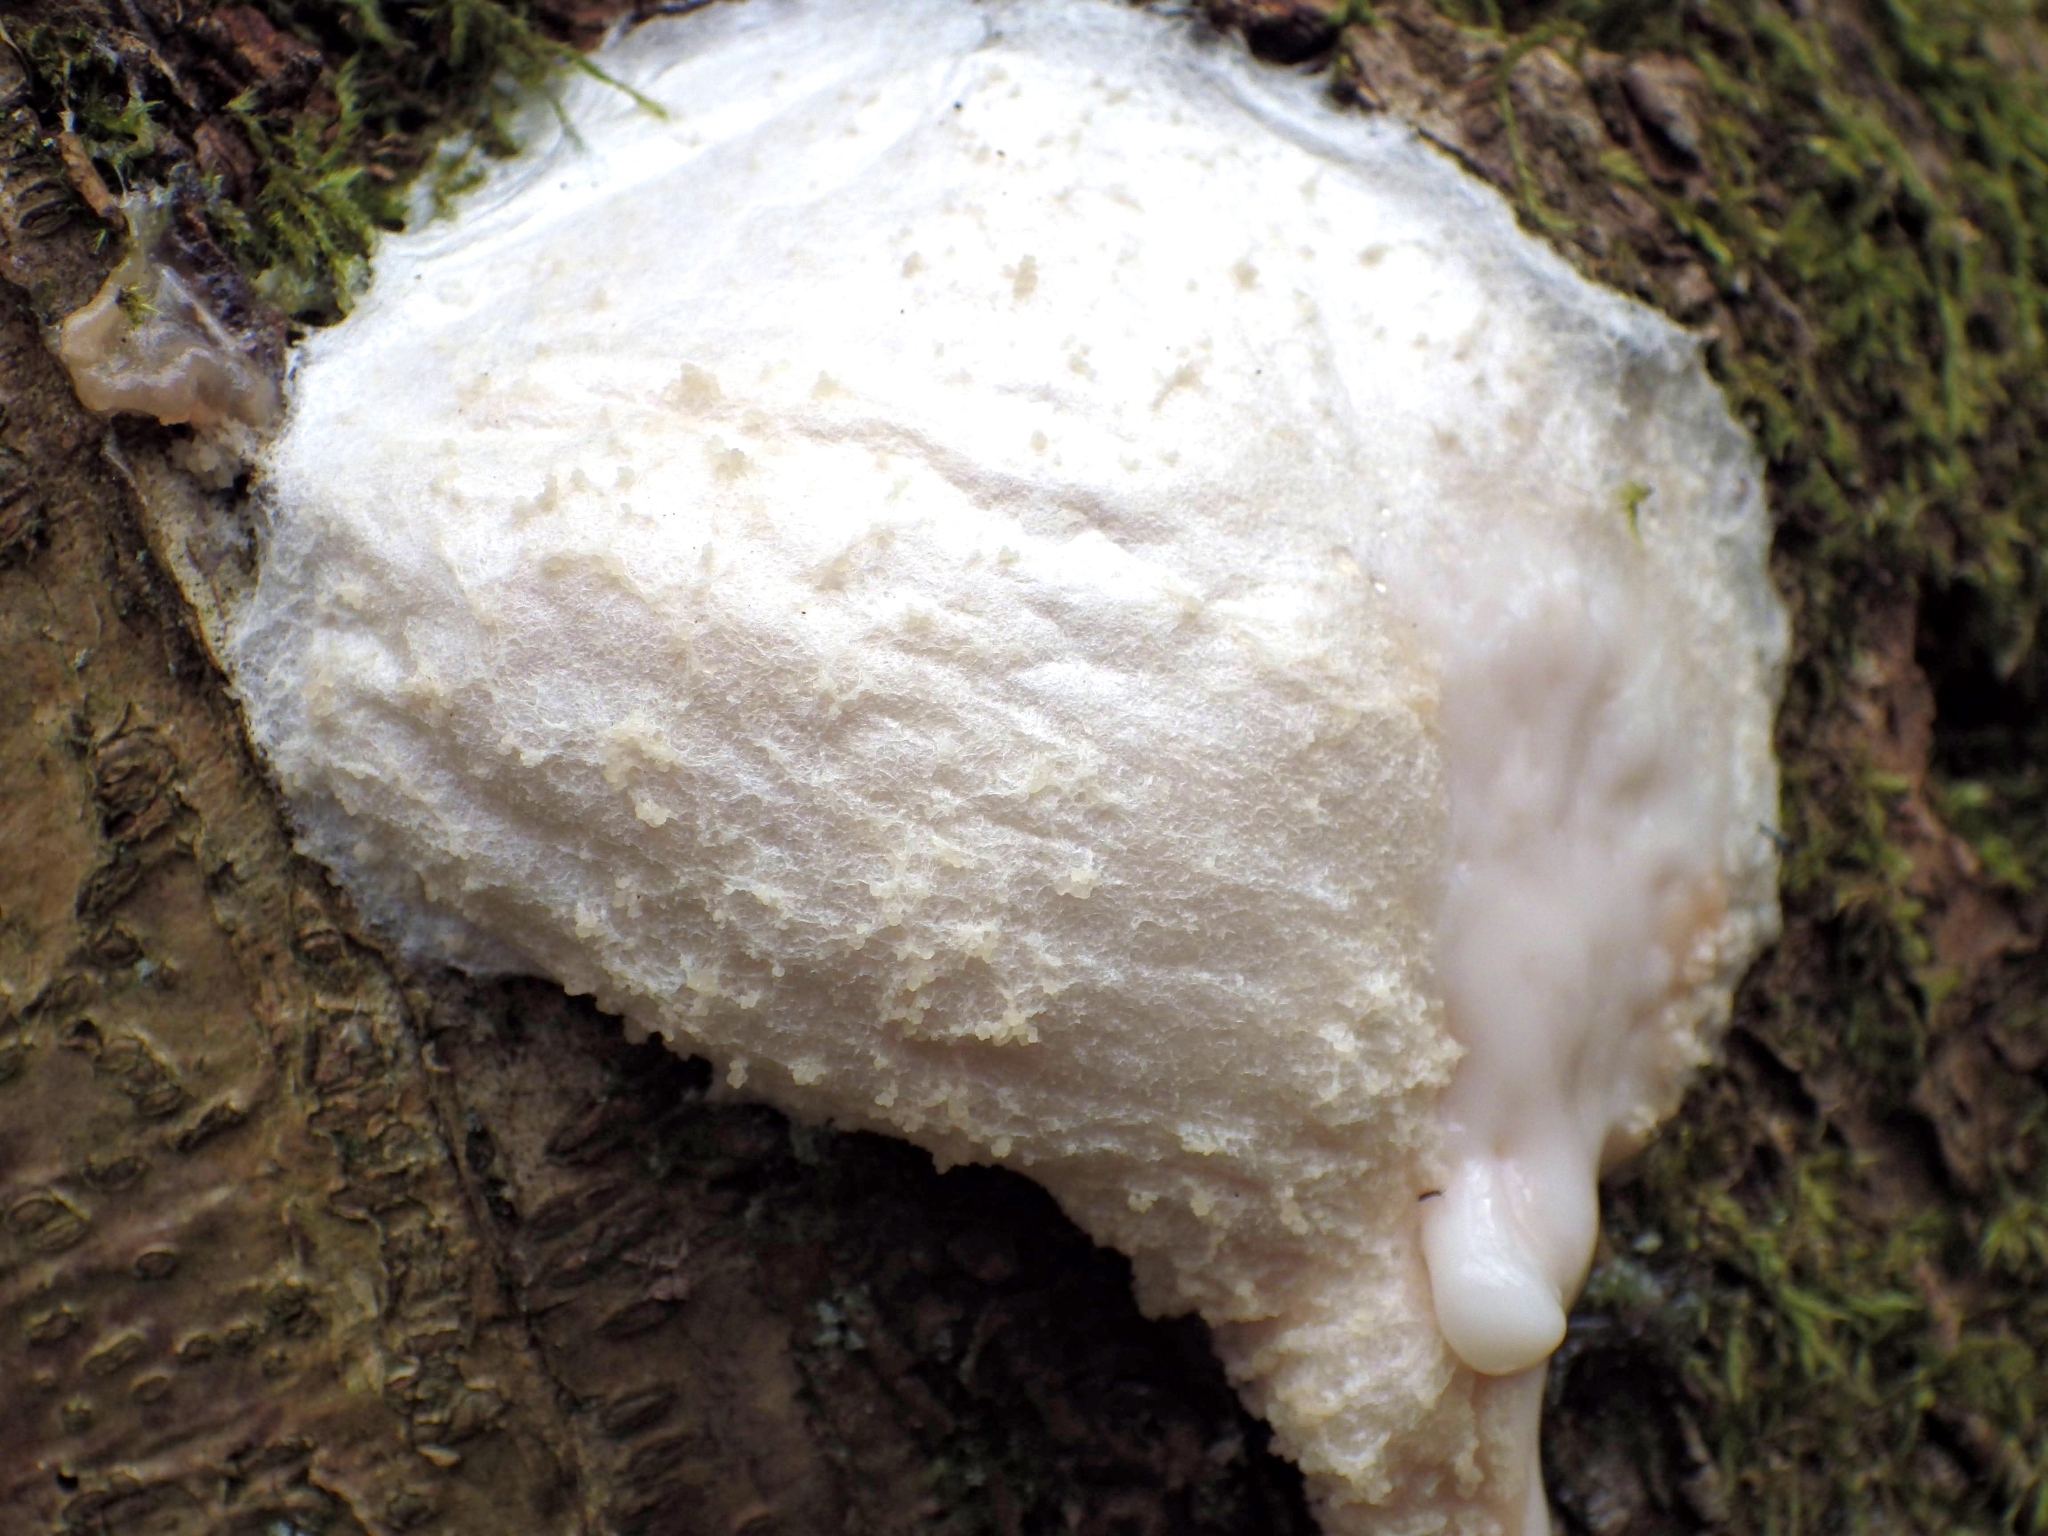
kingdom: Protozoa
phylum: Mycetozoa
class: Myxomycetes
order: Cribrariales
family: Tubiferaceae
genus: Reticularia
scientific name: Reticularia lycoperdon
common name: False puffball
